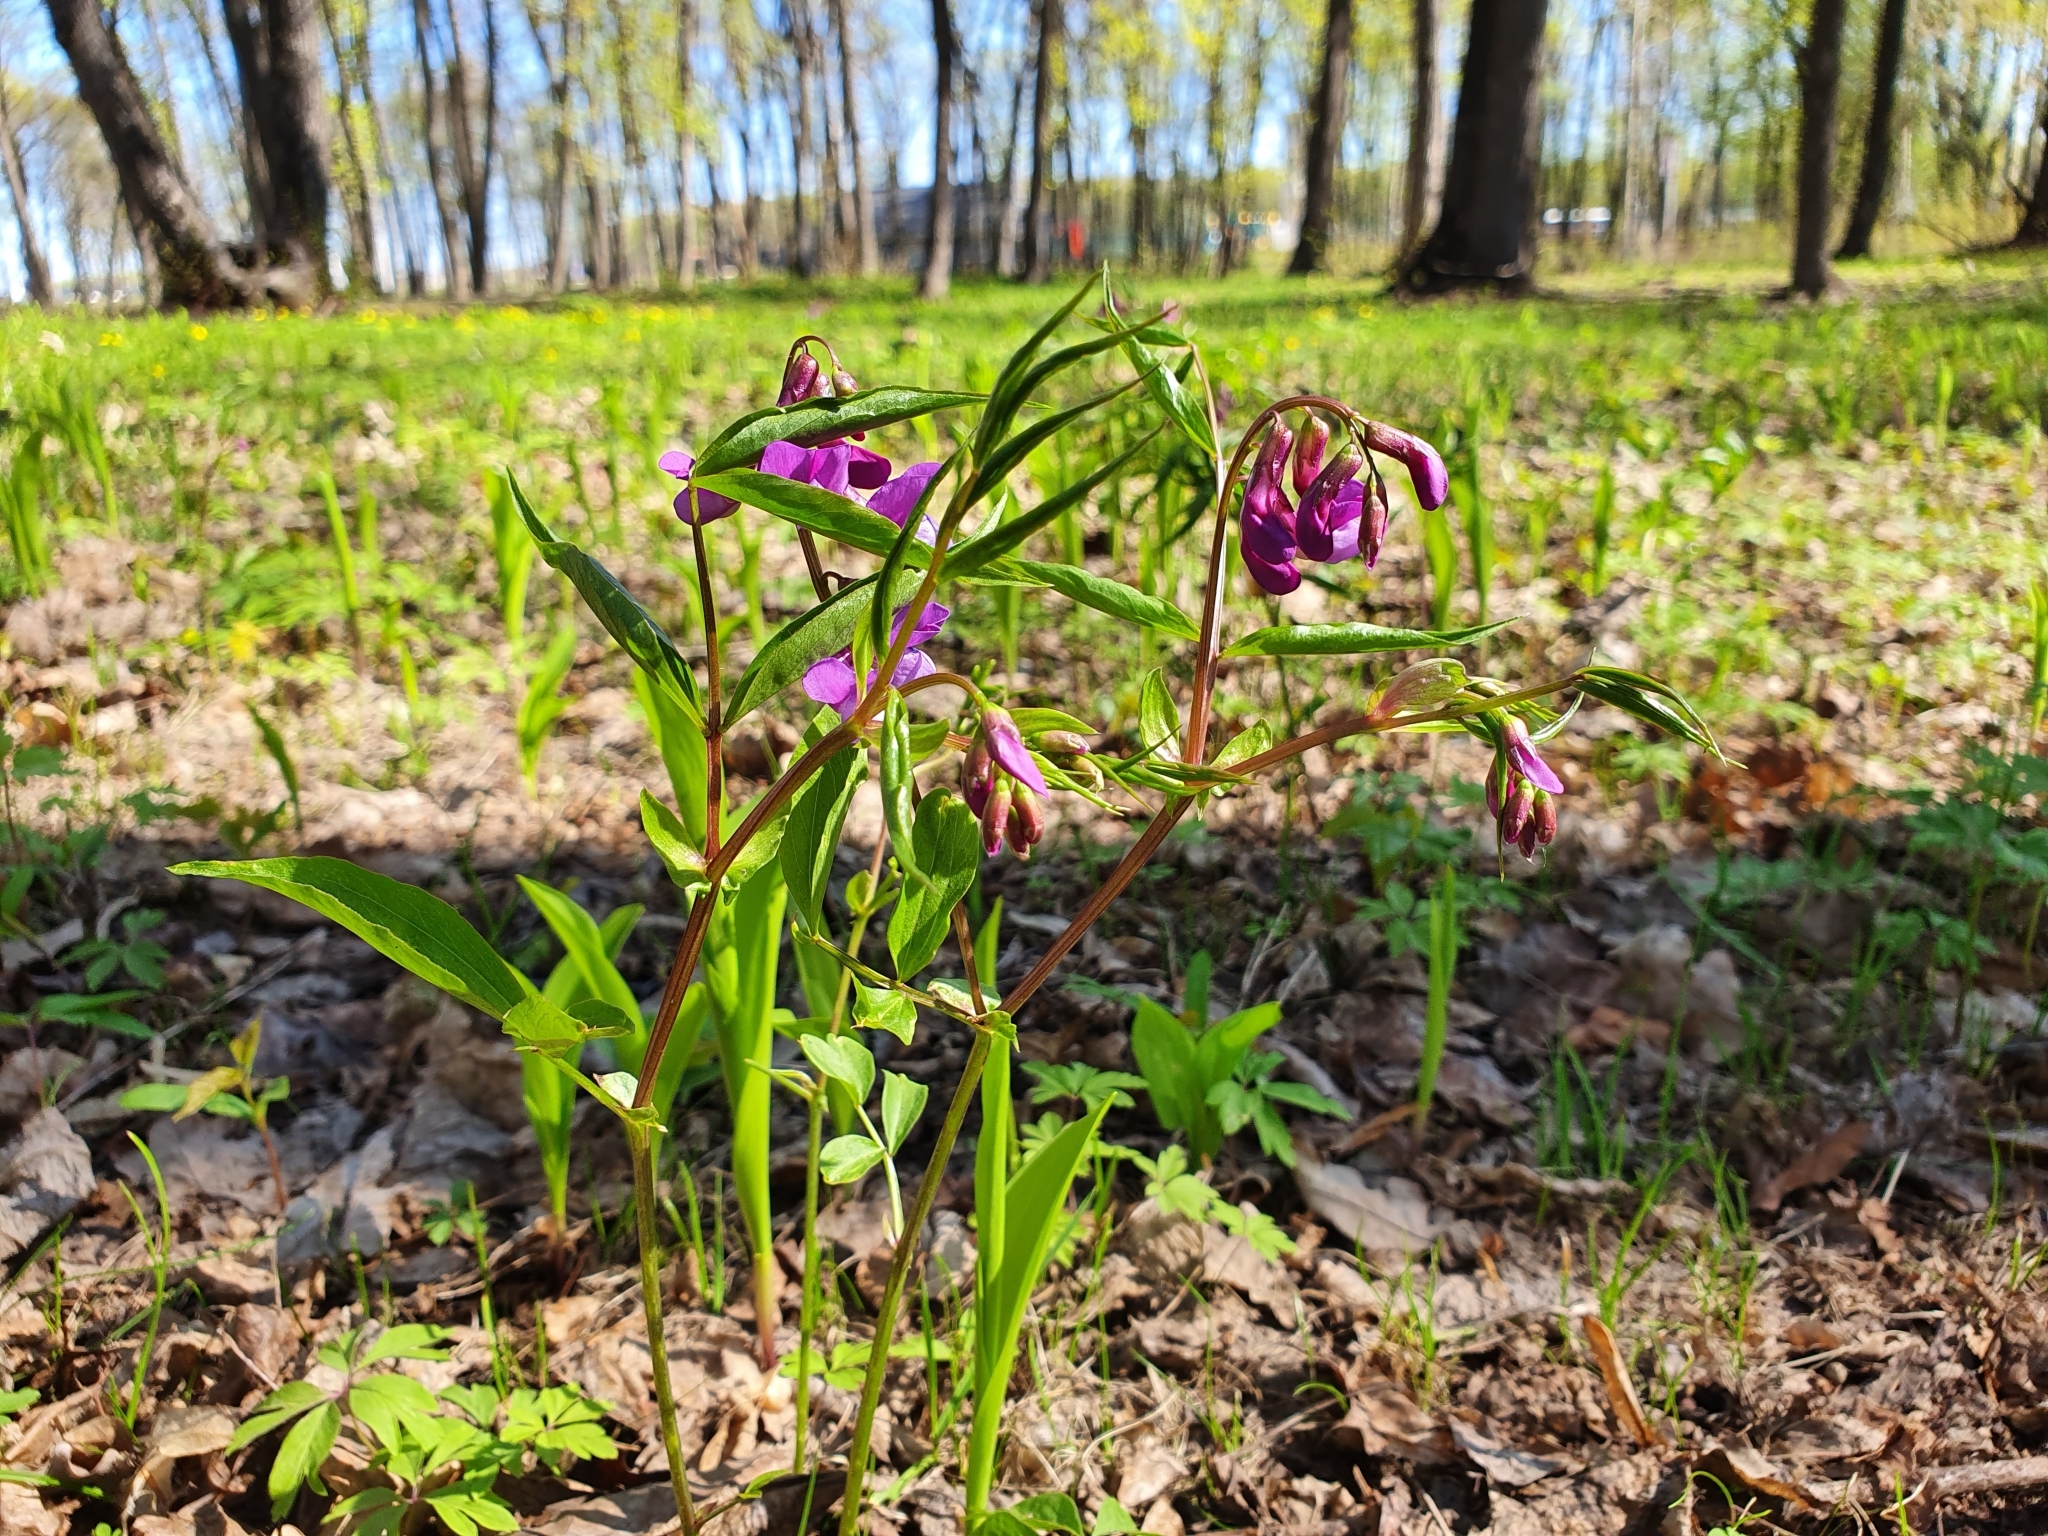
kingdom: Plantae
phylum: Tracheophyta
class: Magnoliopsida
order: Fabales
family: Fabaceae
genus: Lathyrus
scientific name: Lathyrus vernus
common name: Spring pea
